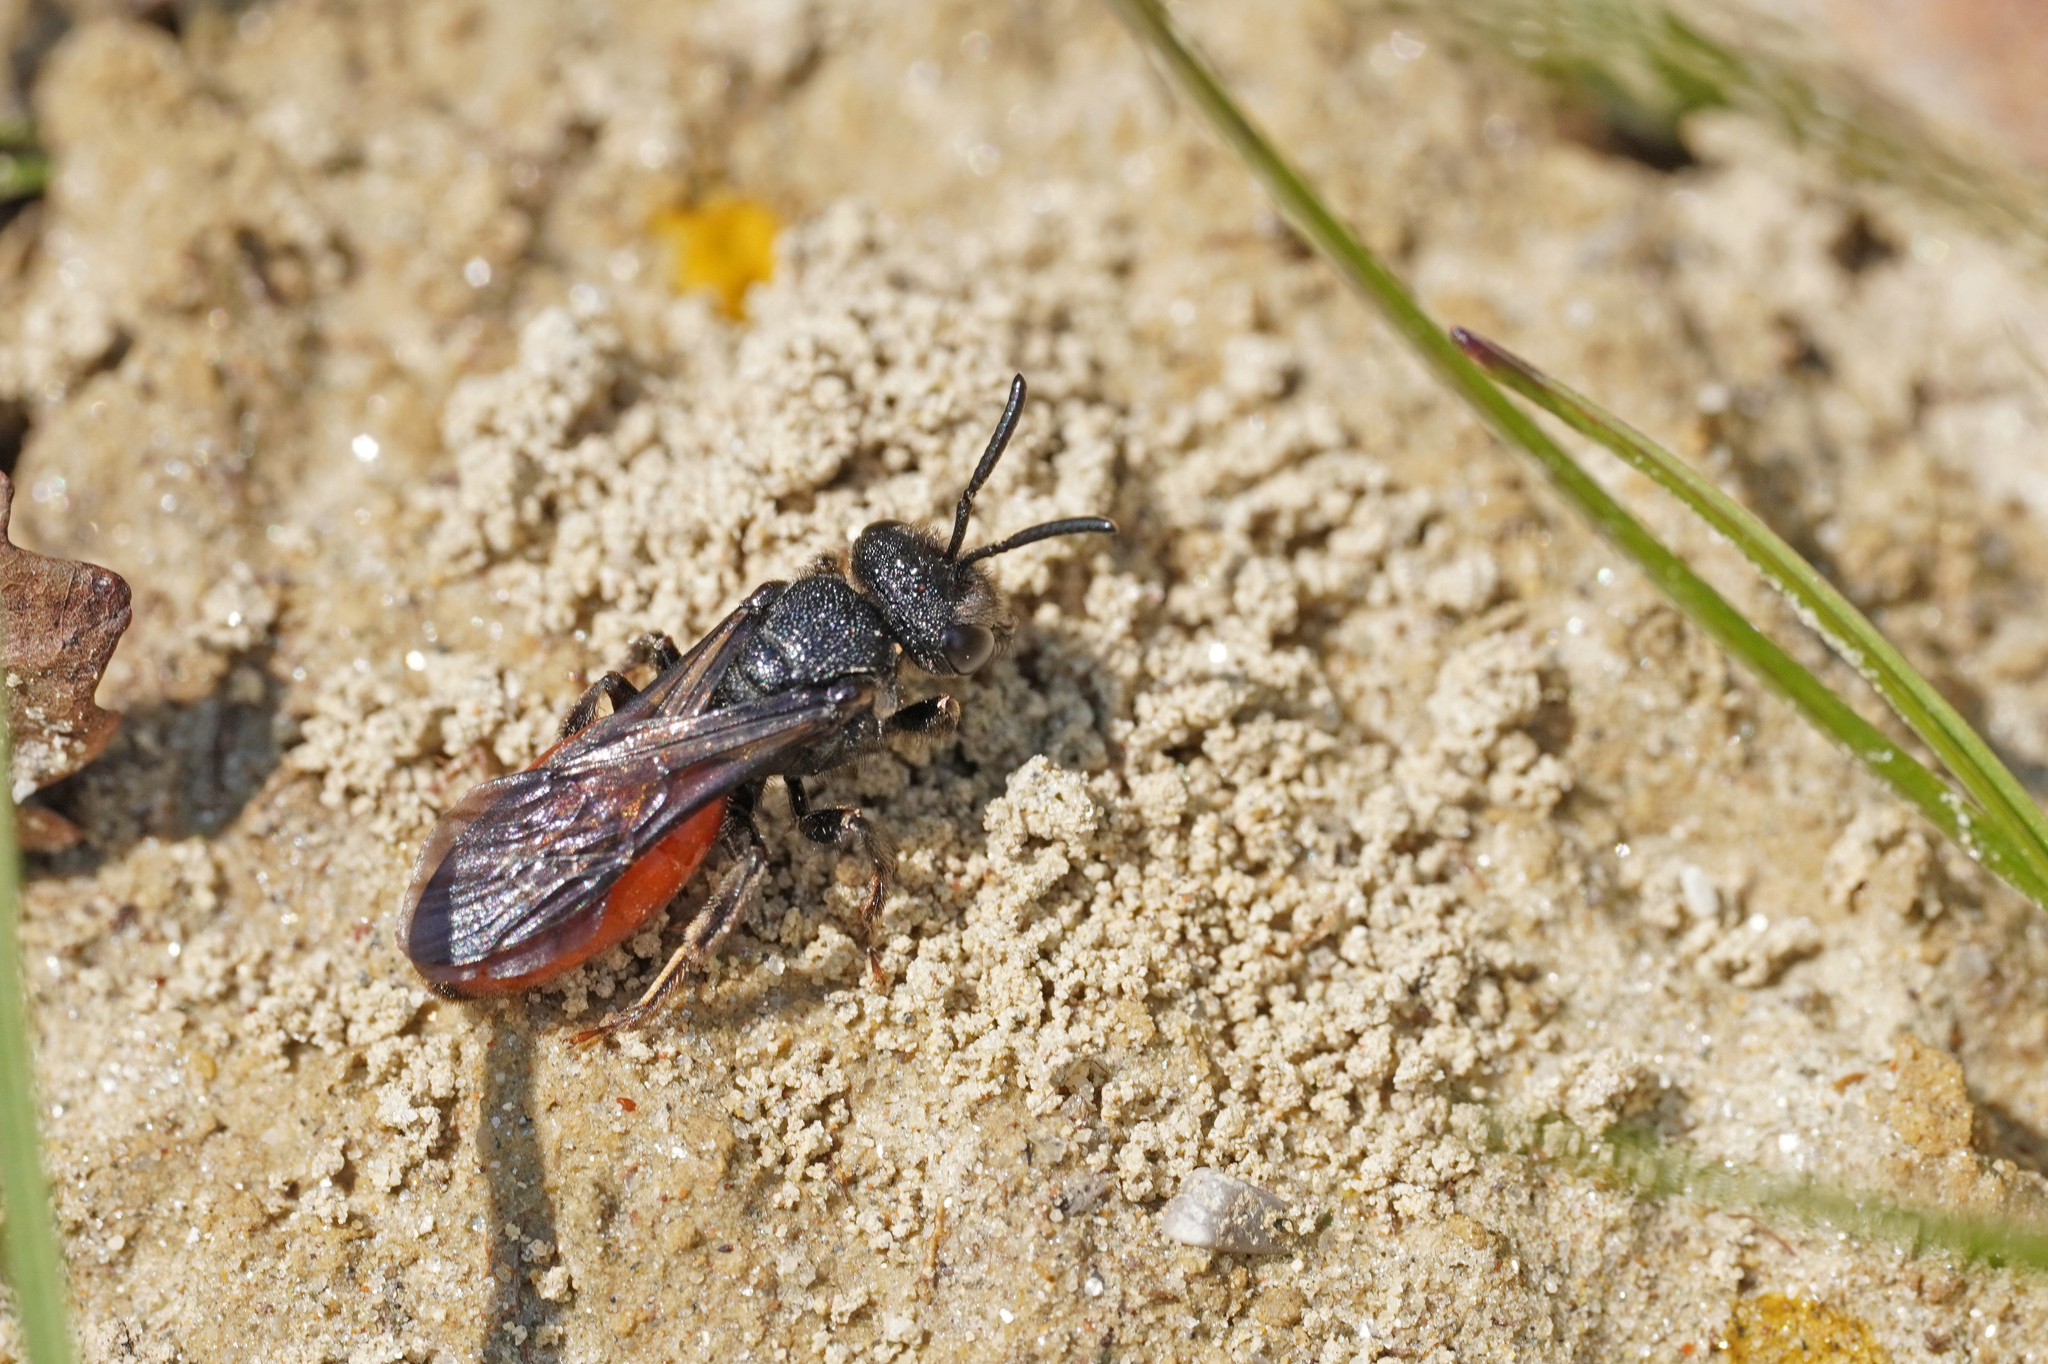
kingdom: Animalia
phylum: Arthropoda
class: Insecta
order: Hymenoptera
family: Halictidae
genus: Sphecodes
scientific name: Sphecodes albilabris
